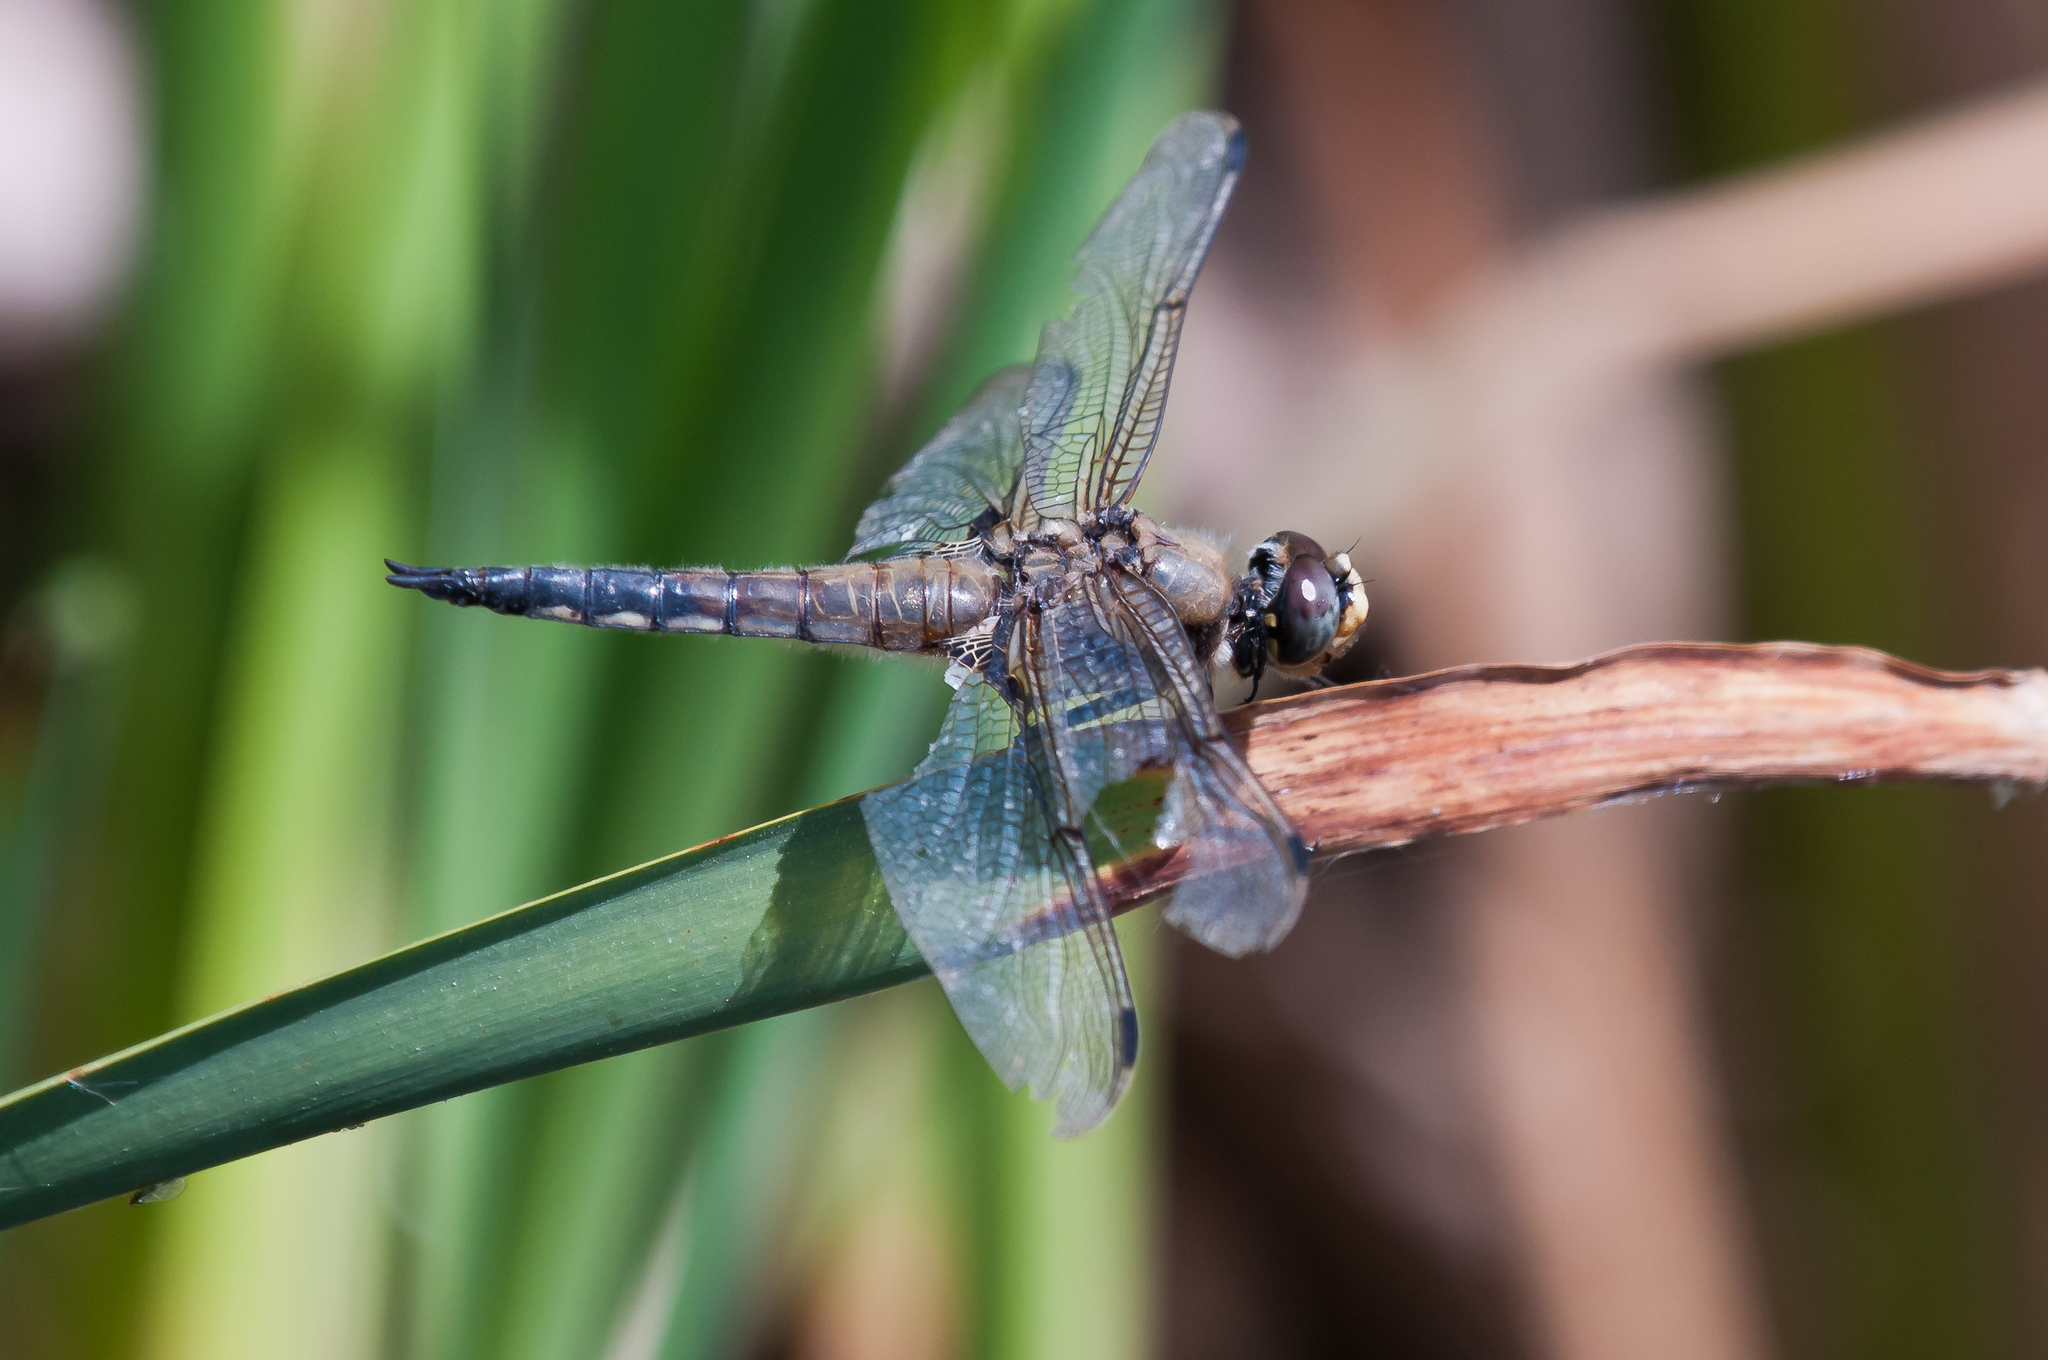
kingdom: Animalia
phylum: Arthropoda
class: Insecta
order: Odonata
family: Libellulidae
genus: Libellula
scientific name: Libellula quadrimaculata
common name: Four-spotted chaser
